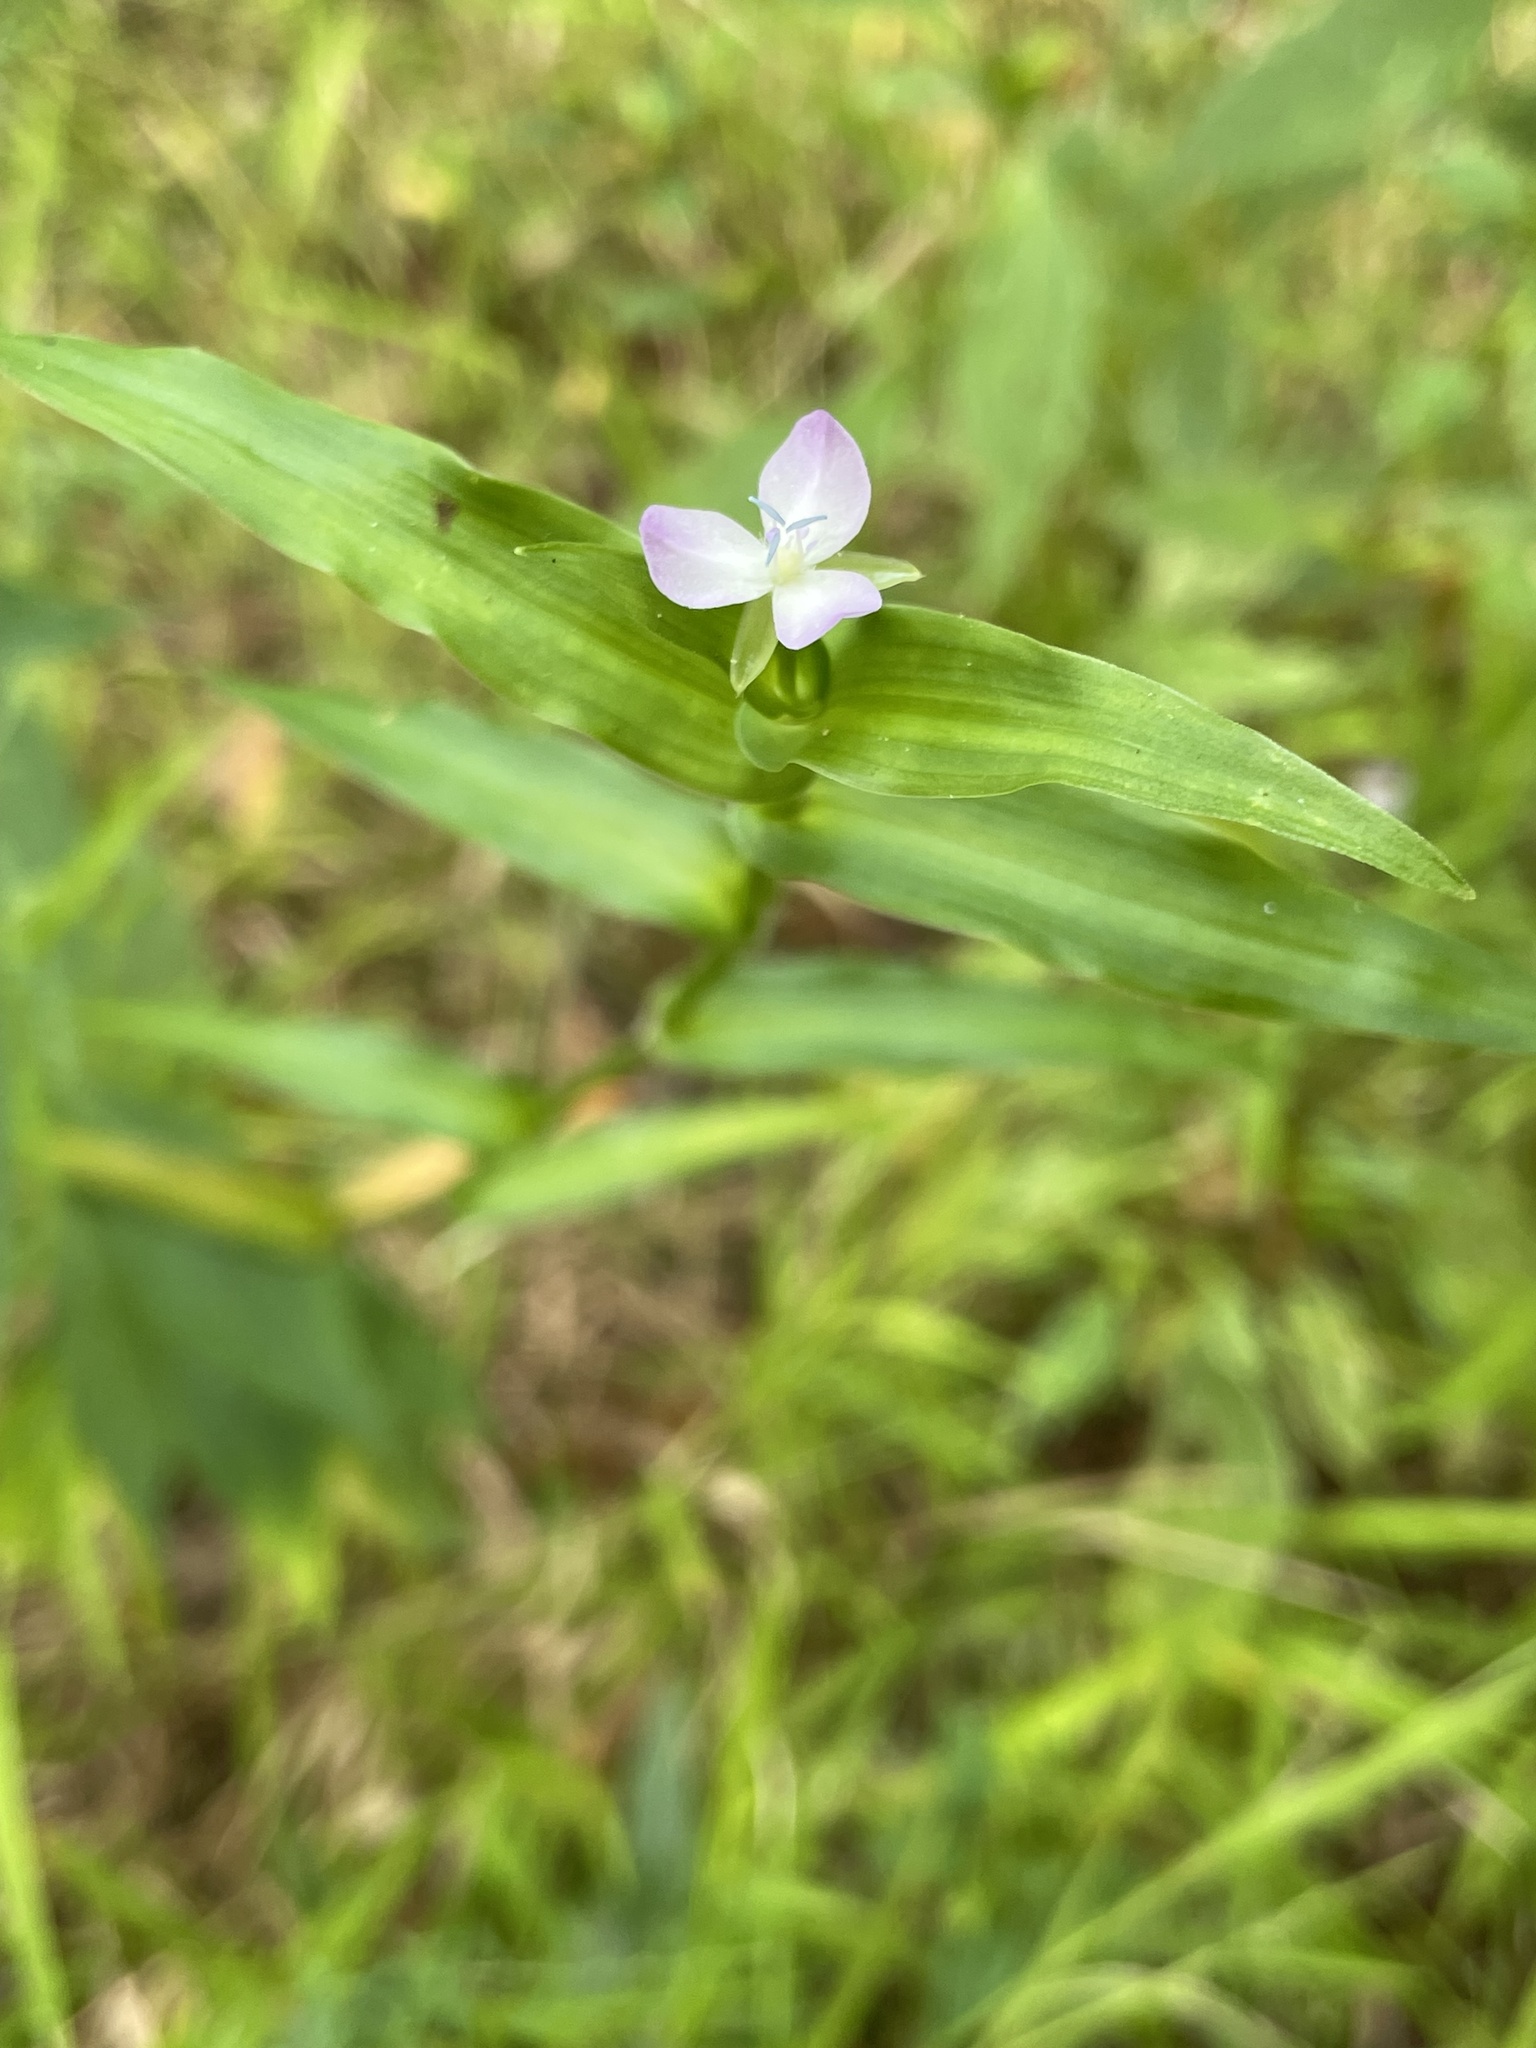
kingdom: Plantae
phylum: Tracheophyta
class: Liliopsida
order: Commelinales
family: Commelinaceae
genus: Murdannia
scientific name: Murdannia keisak
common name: Wartremoving herb
